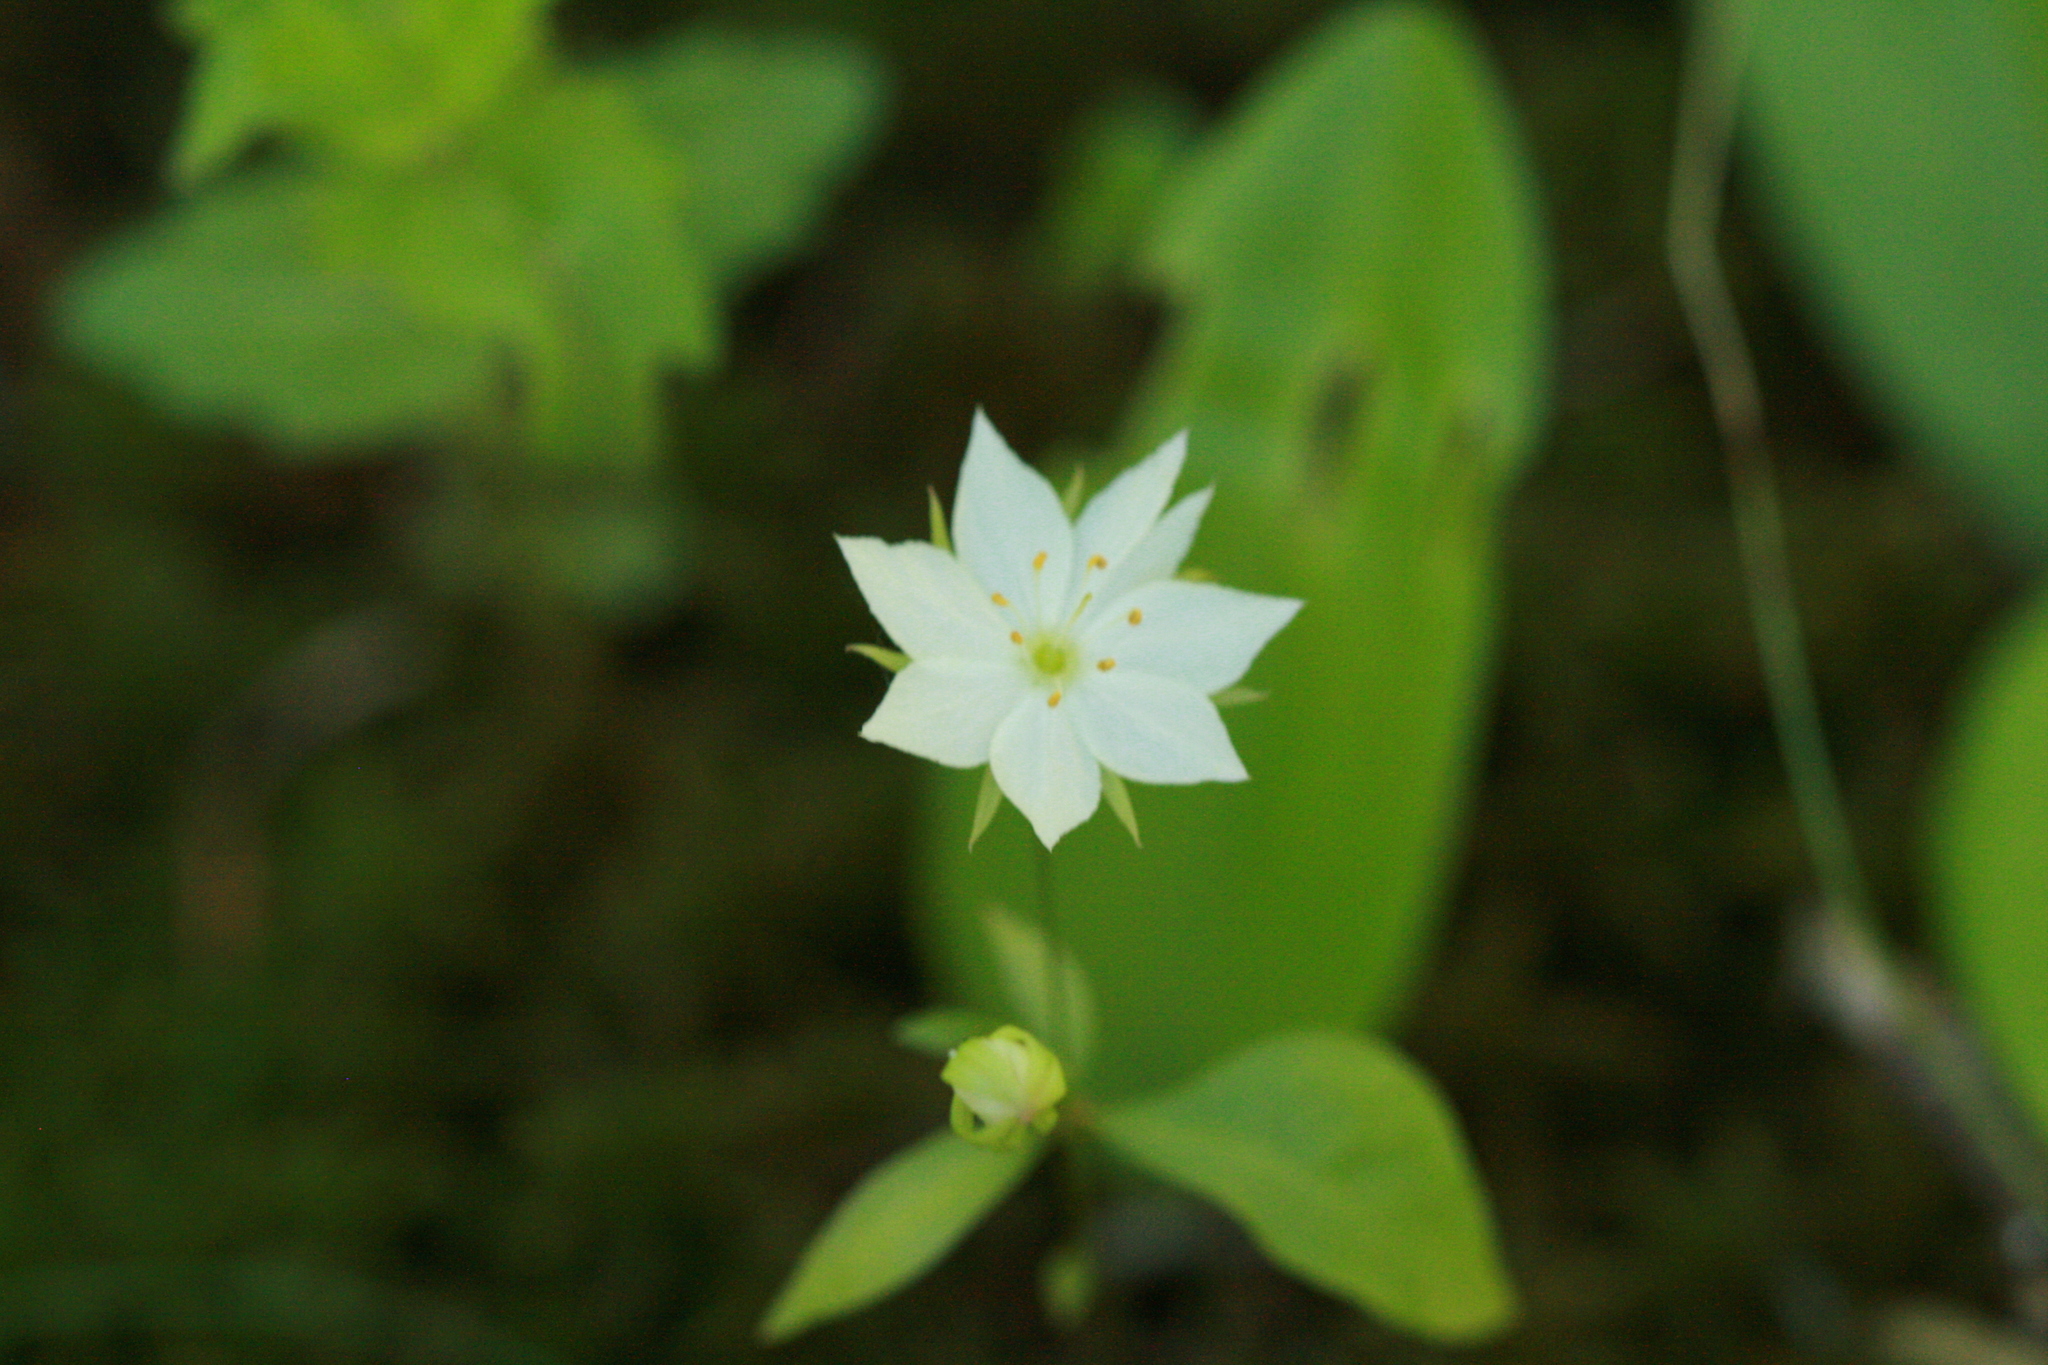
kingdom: Plantae
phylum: Tracheophyta
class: Magnoliopsida
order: Ericales
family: Primulaceae
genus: Lysimachia
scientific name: Lysimachia borealis
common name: American starflower
